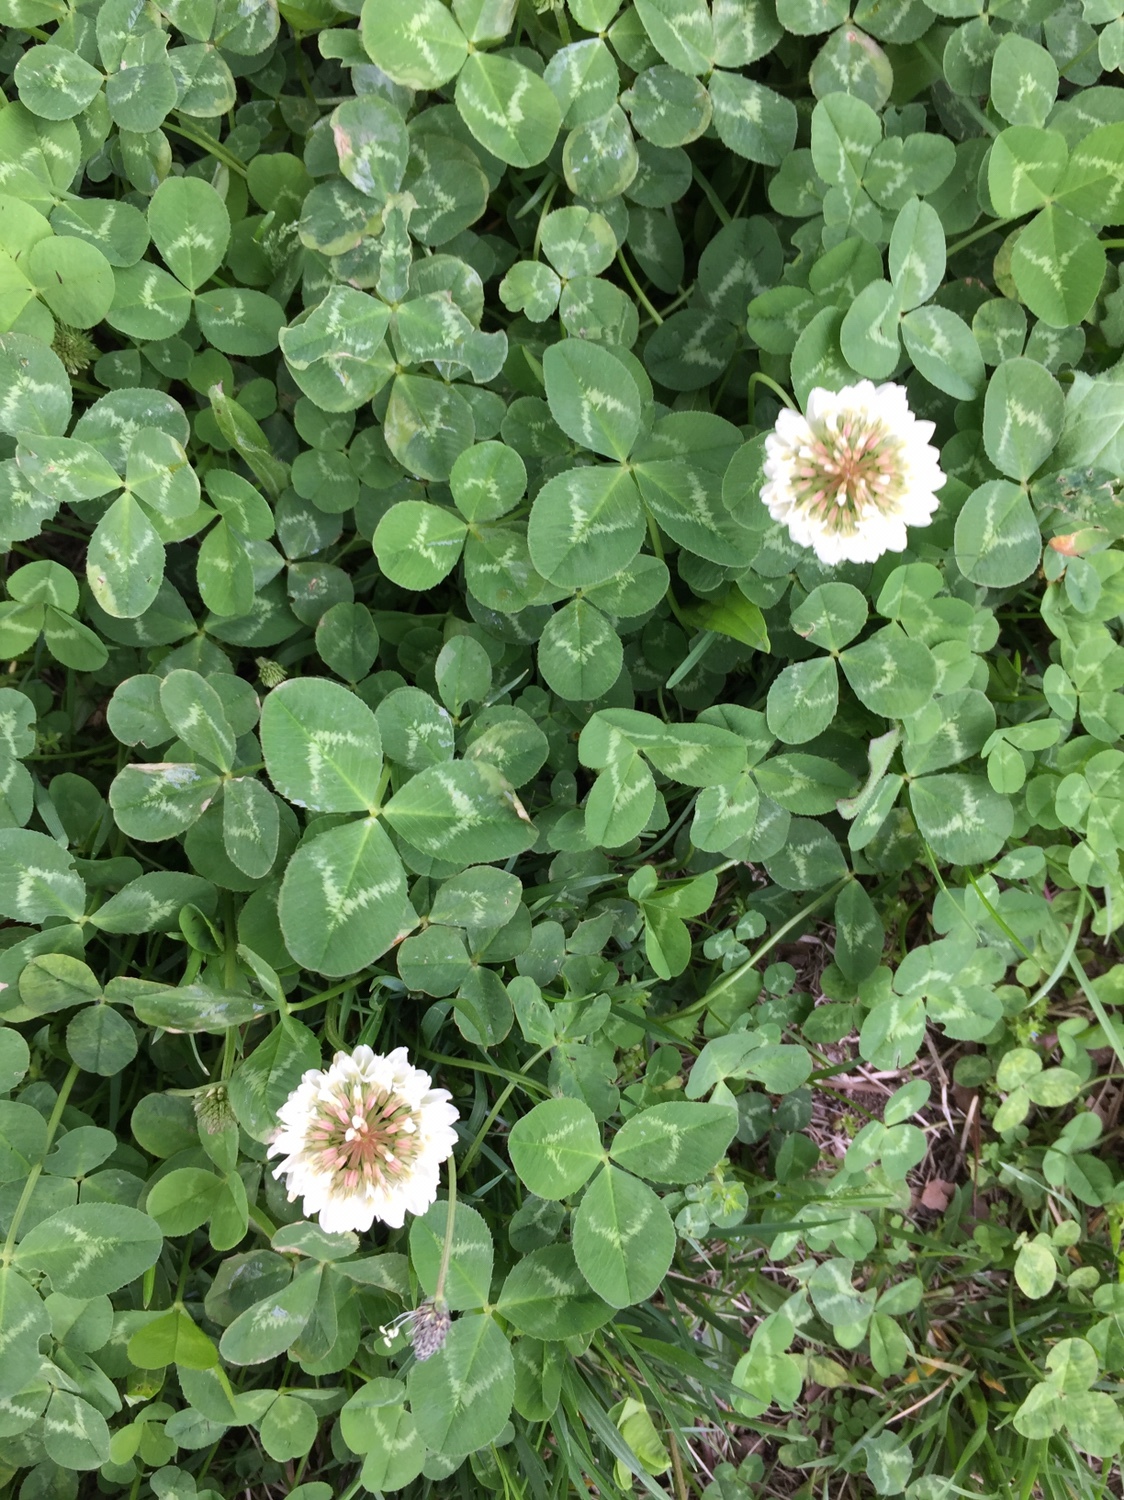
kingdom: Plantae
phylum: Tracheophyta
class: Magnoliopsida
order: Fabales
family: Fabaceae
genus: Trifolium
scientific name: Trifolium repens
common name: White clover
